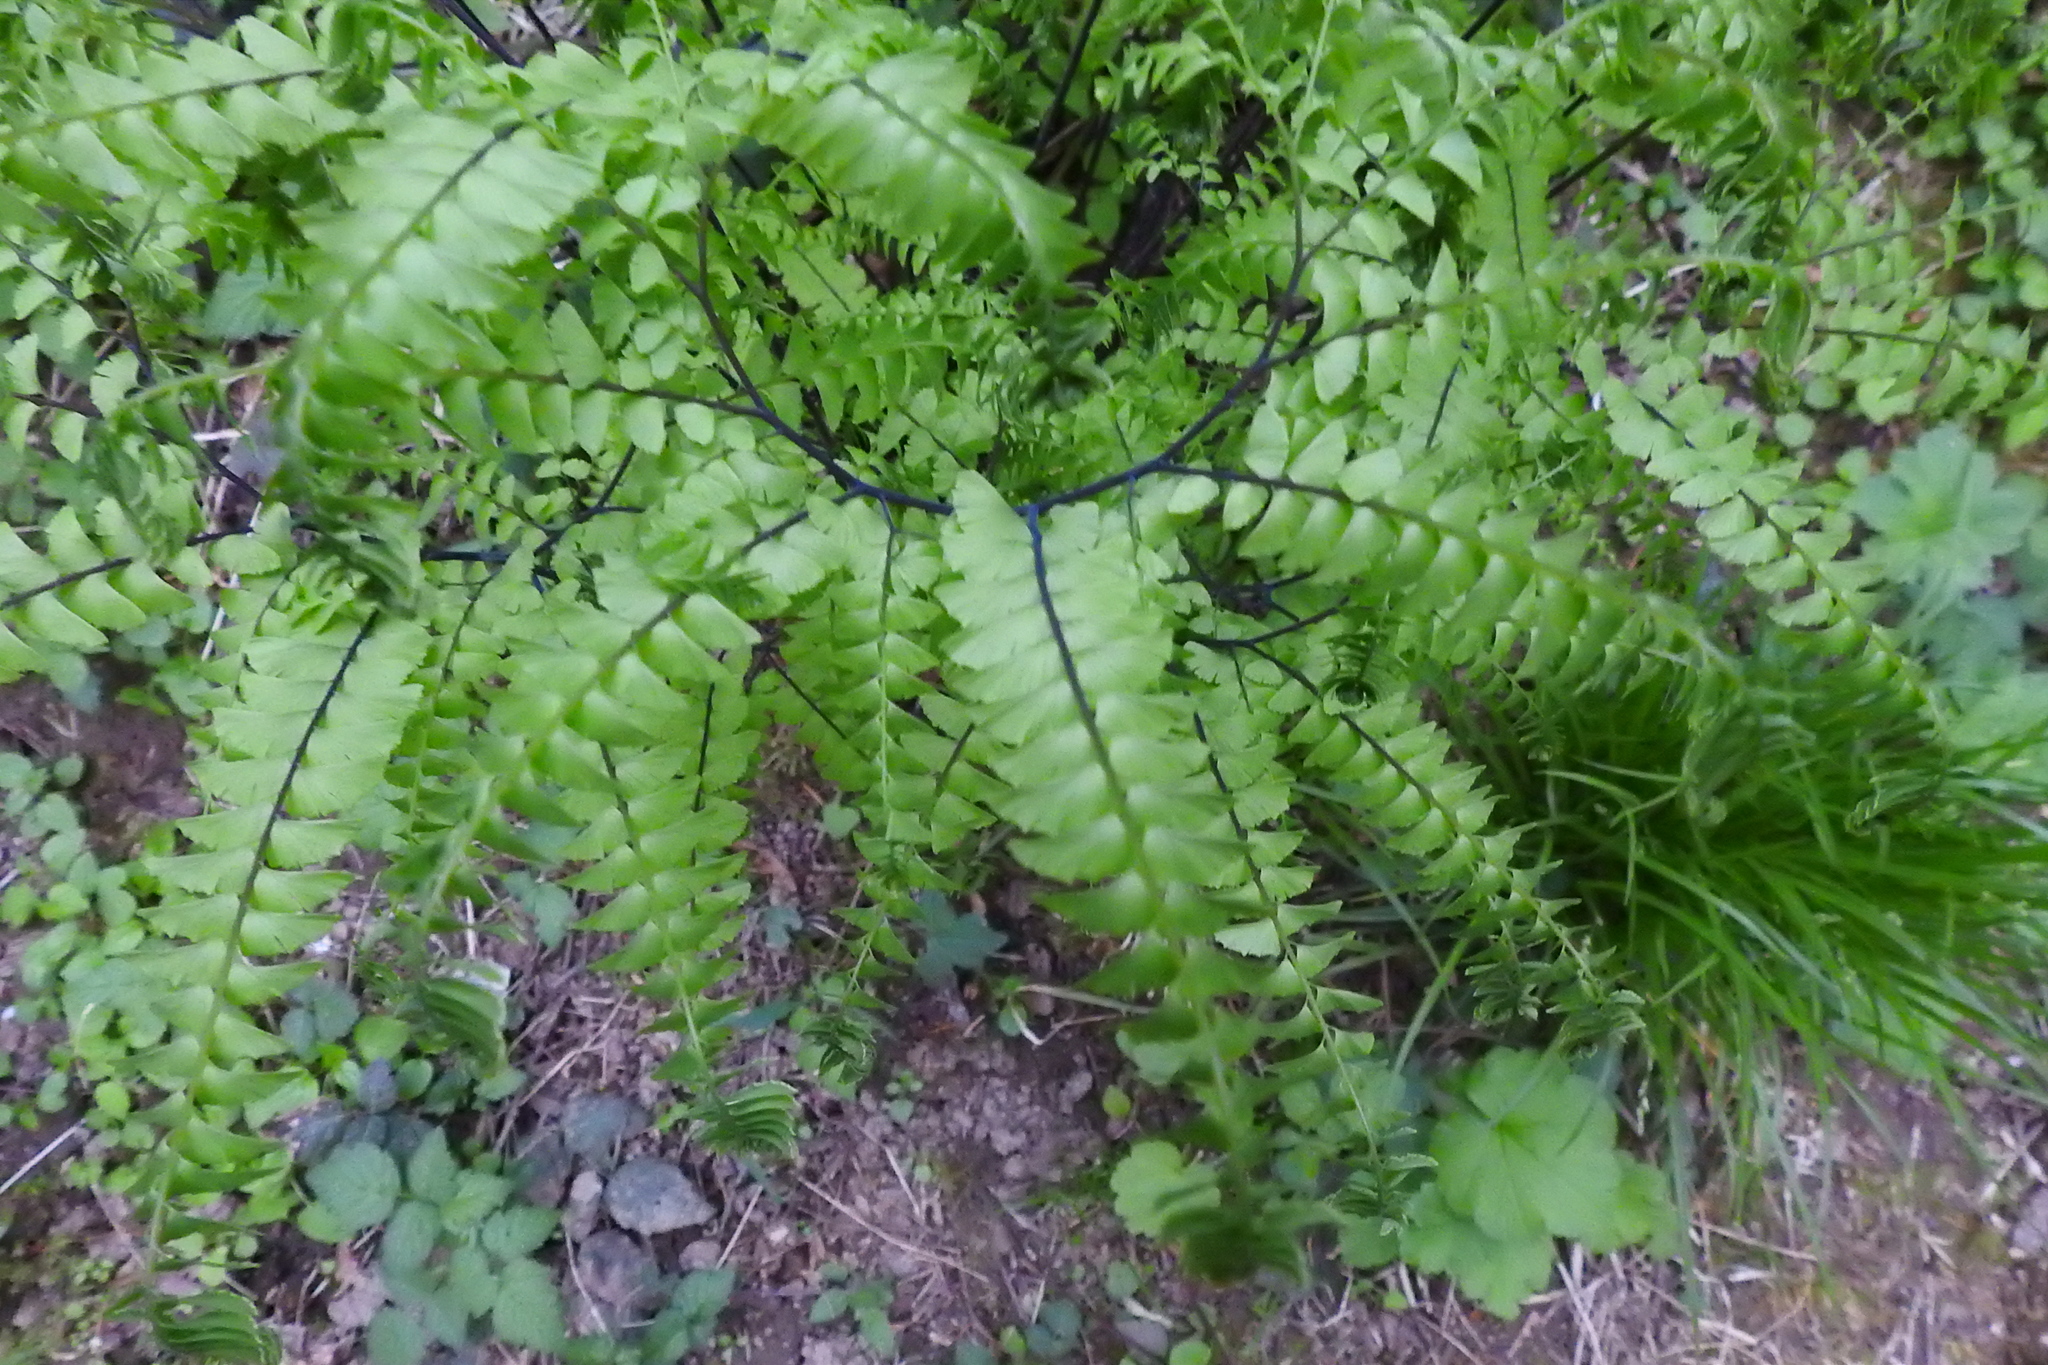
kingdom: Plantae
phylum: Tracheophyta
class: Polypodiopsida
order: Polypodiales
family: Pteridaceae
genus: Adiantum
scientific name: Adiantum aleuticum
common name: Aleutian maidenhair fern
